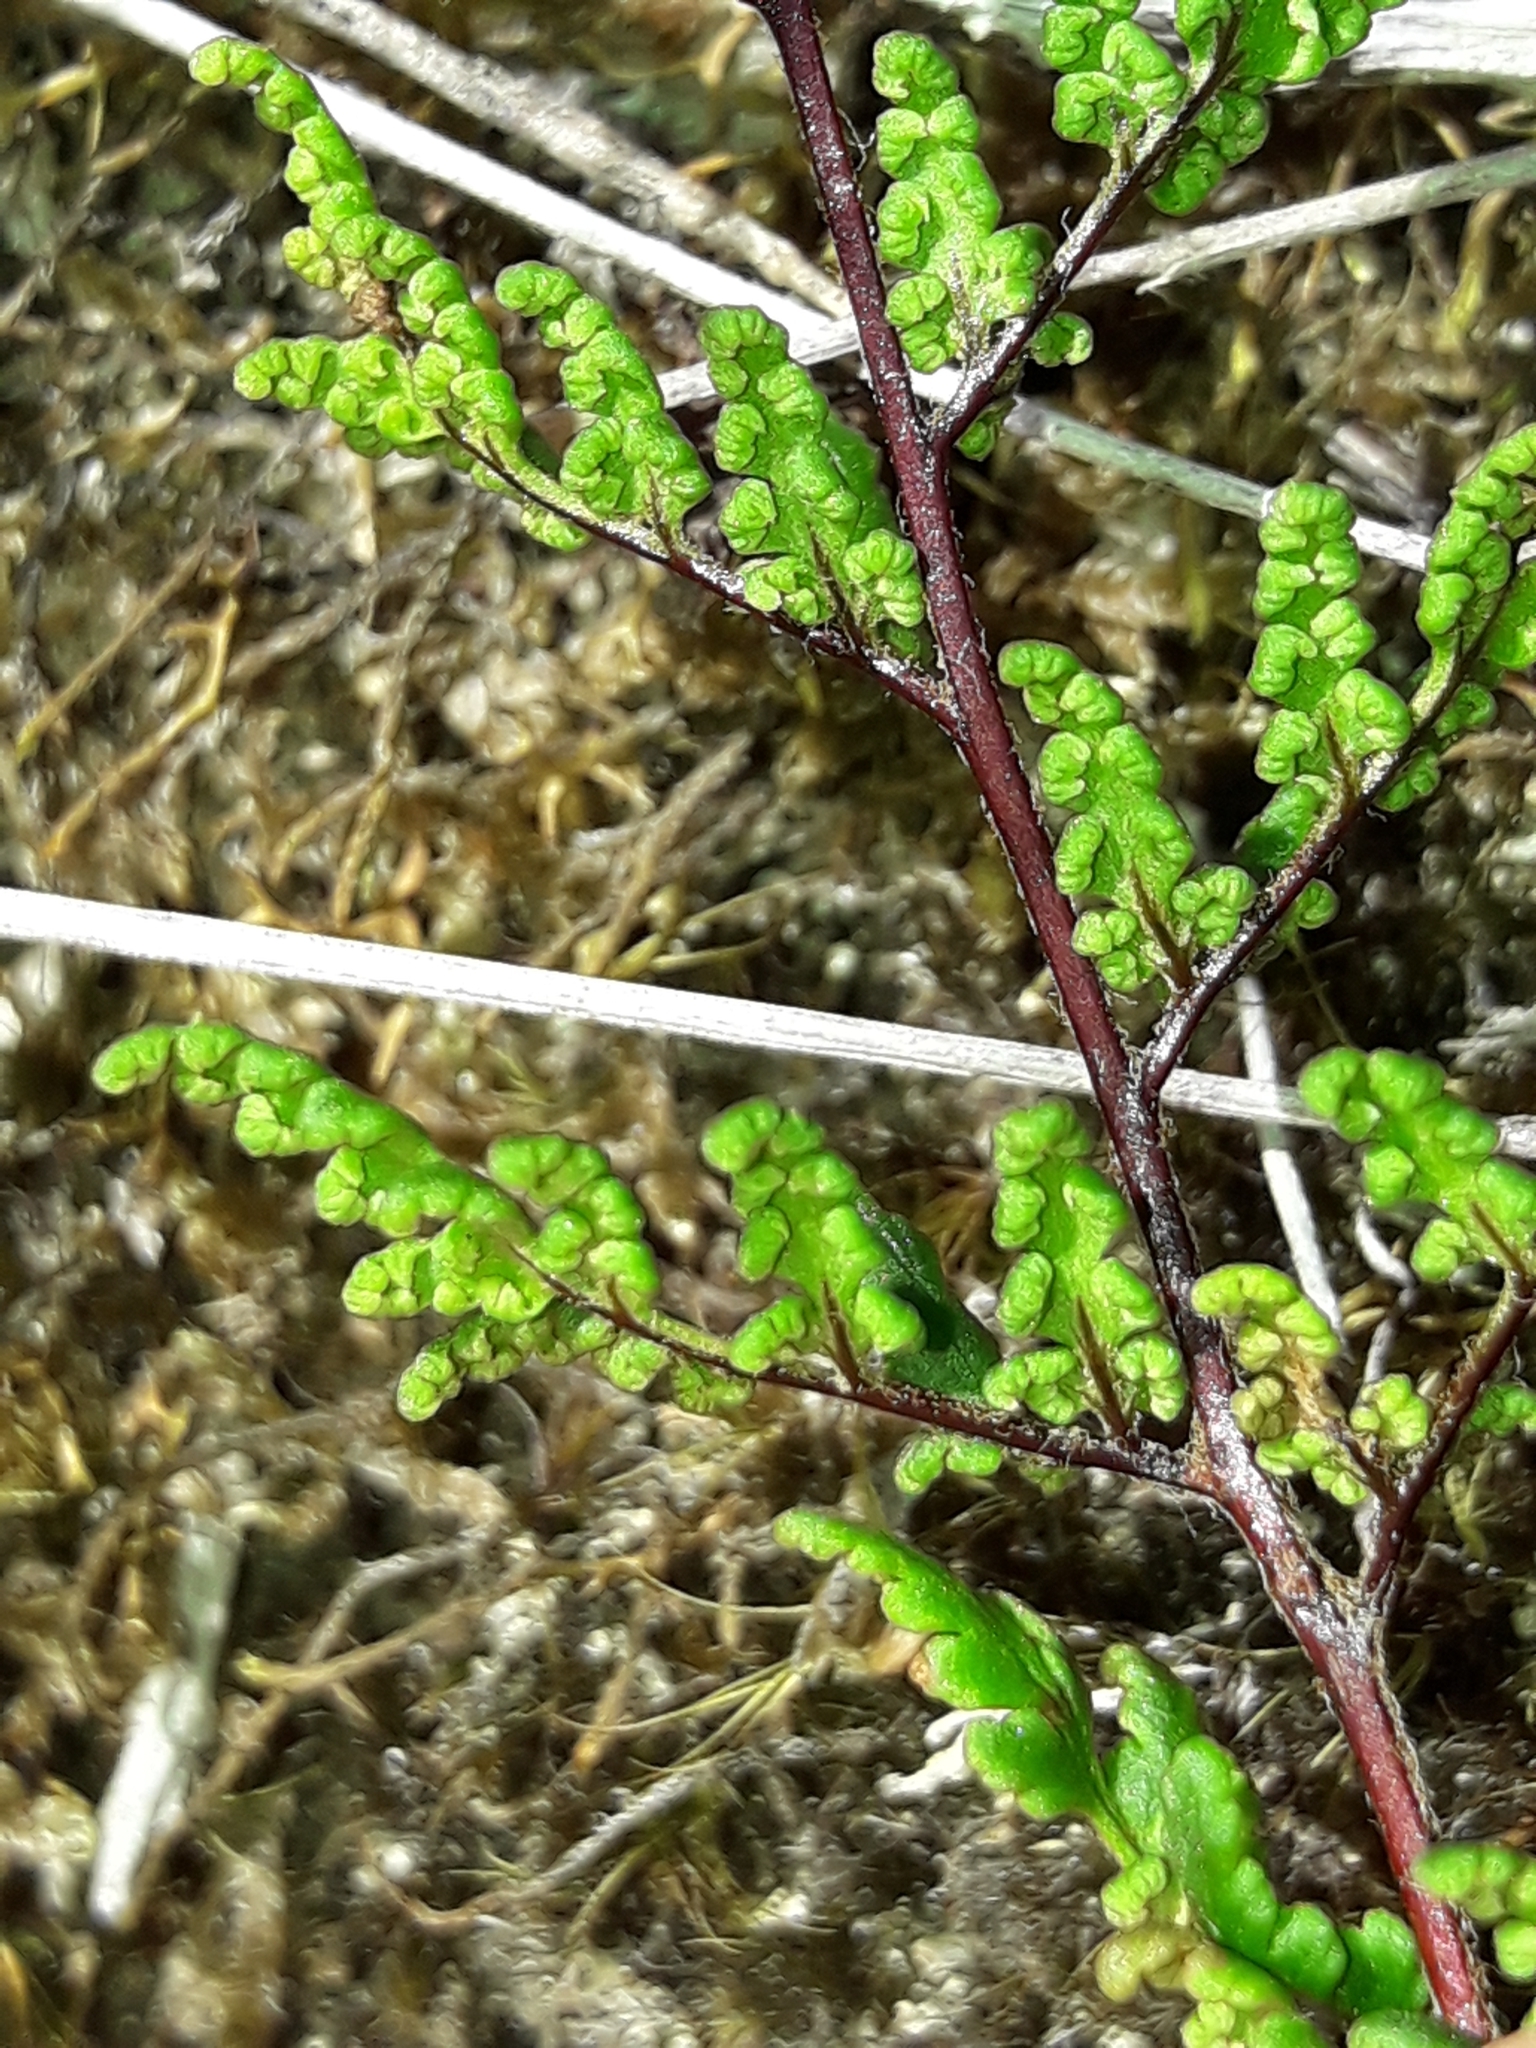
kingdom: Plantae
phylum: Tracheophyta
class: Polypodiopsida
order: Polypodiales
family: Pteridaceae
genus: Cheilanthes
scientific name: Cheilanthes sieberi
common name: Mulga fern
